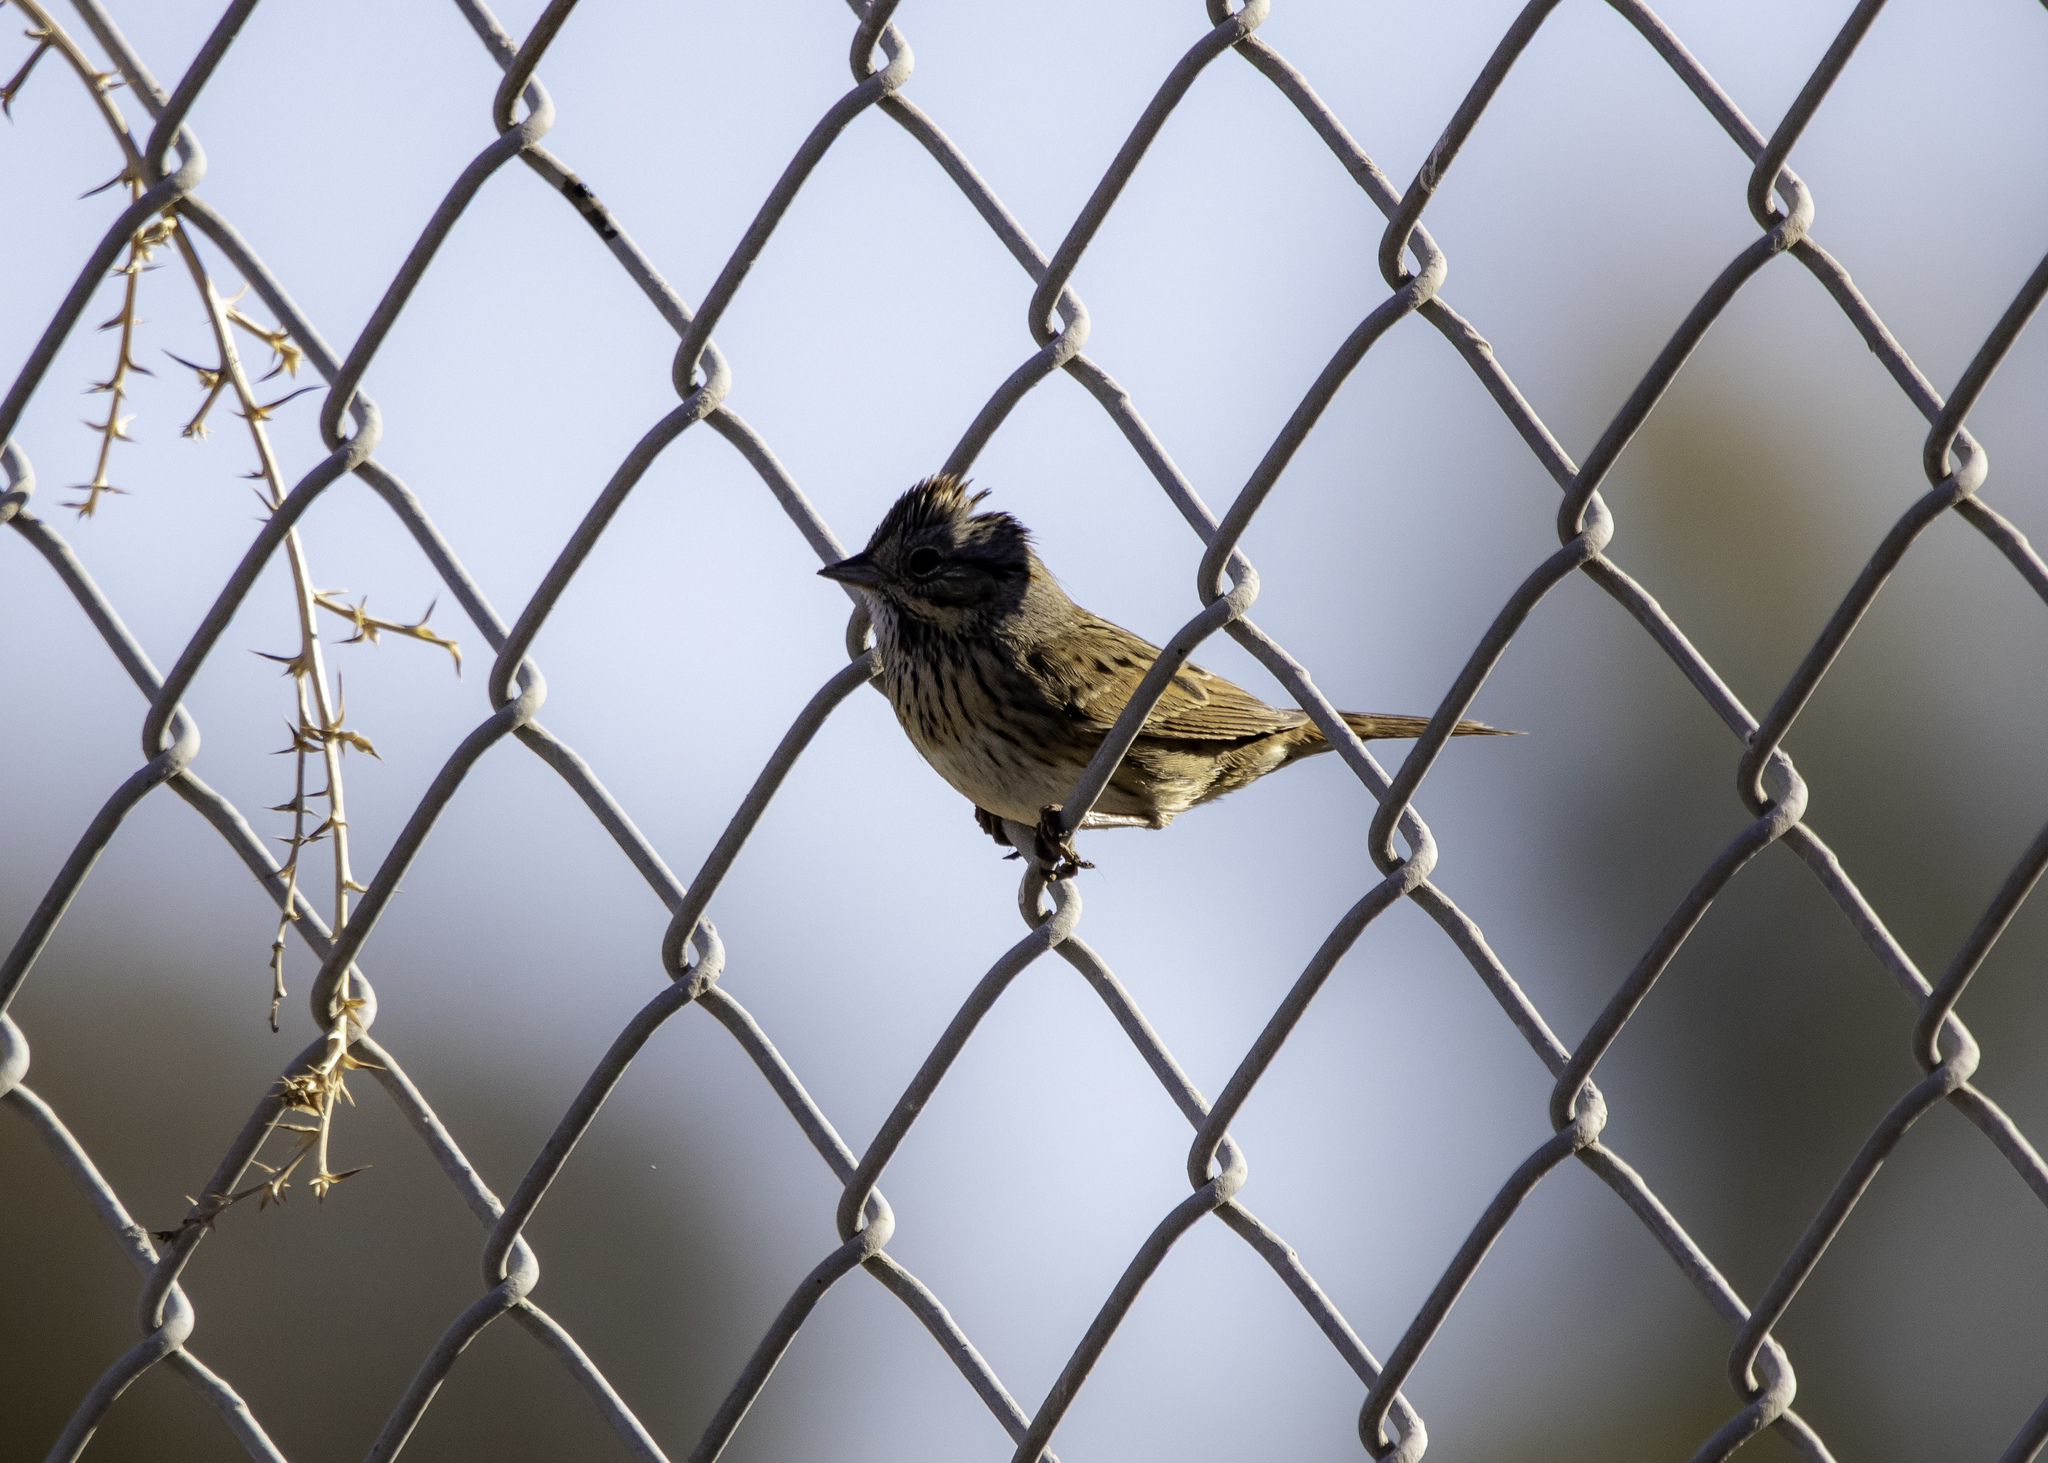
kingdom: Animalia
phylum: Chordata
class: Aves
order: Passeriformes
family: Passerellidae
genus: Melospiza
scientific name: Melospiza lincolnii
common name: Lincoln's sparrow
